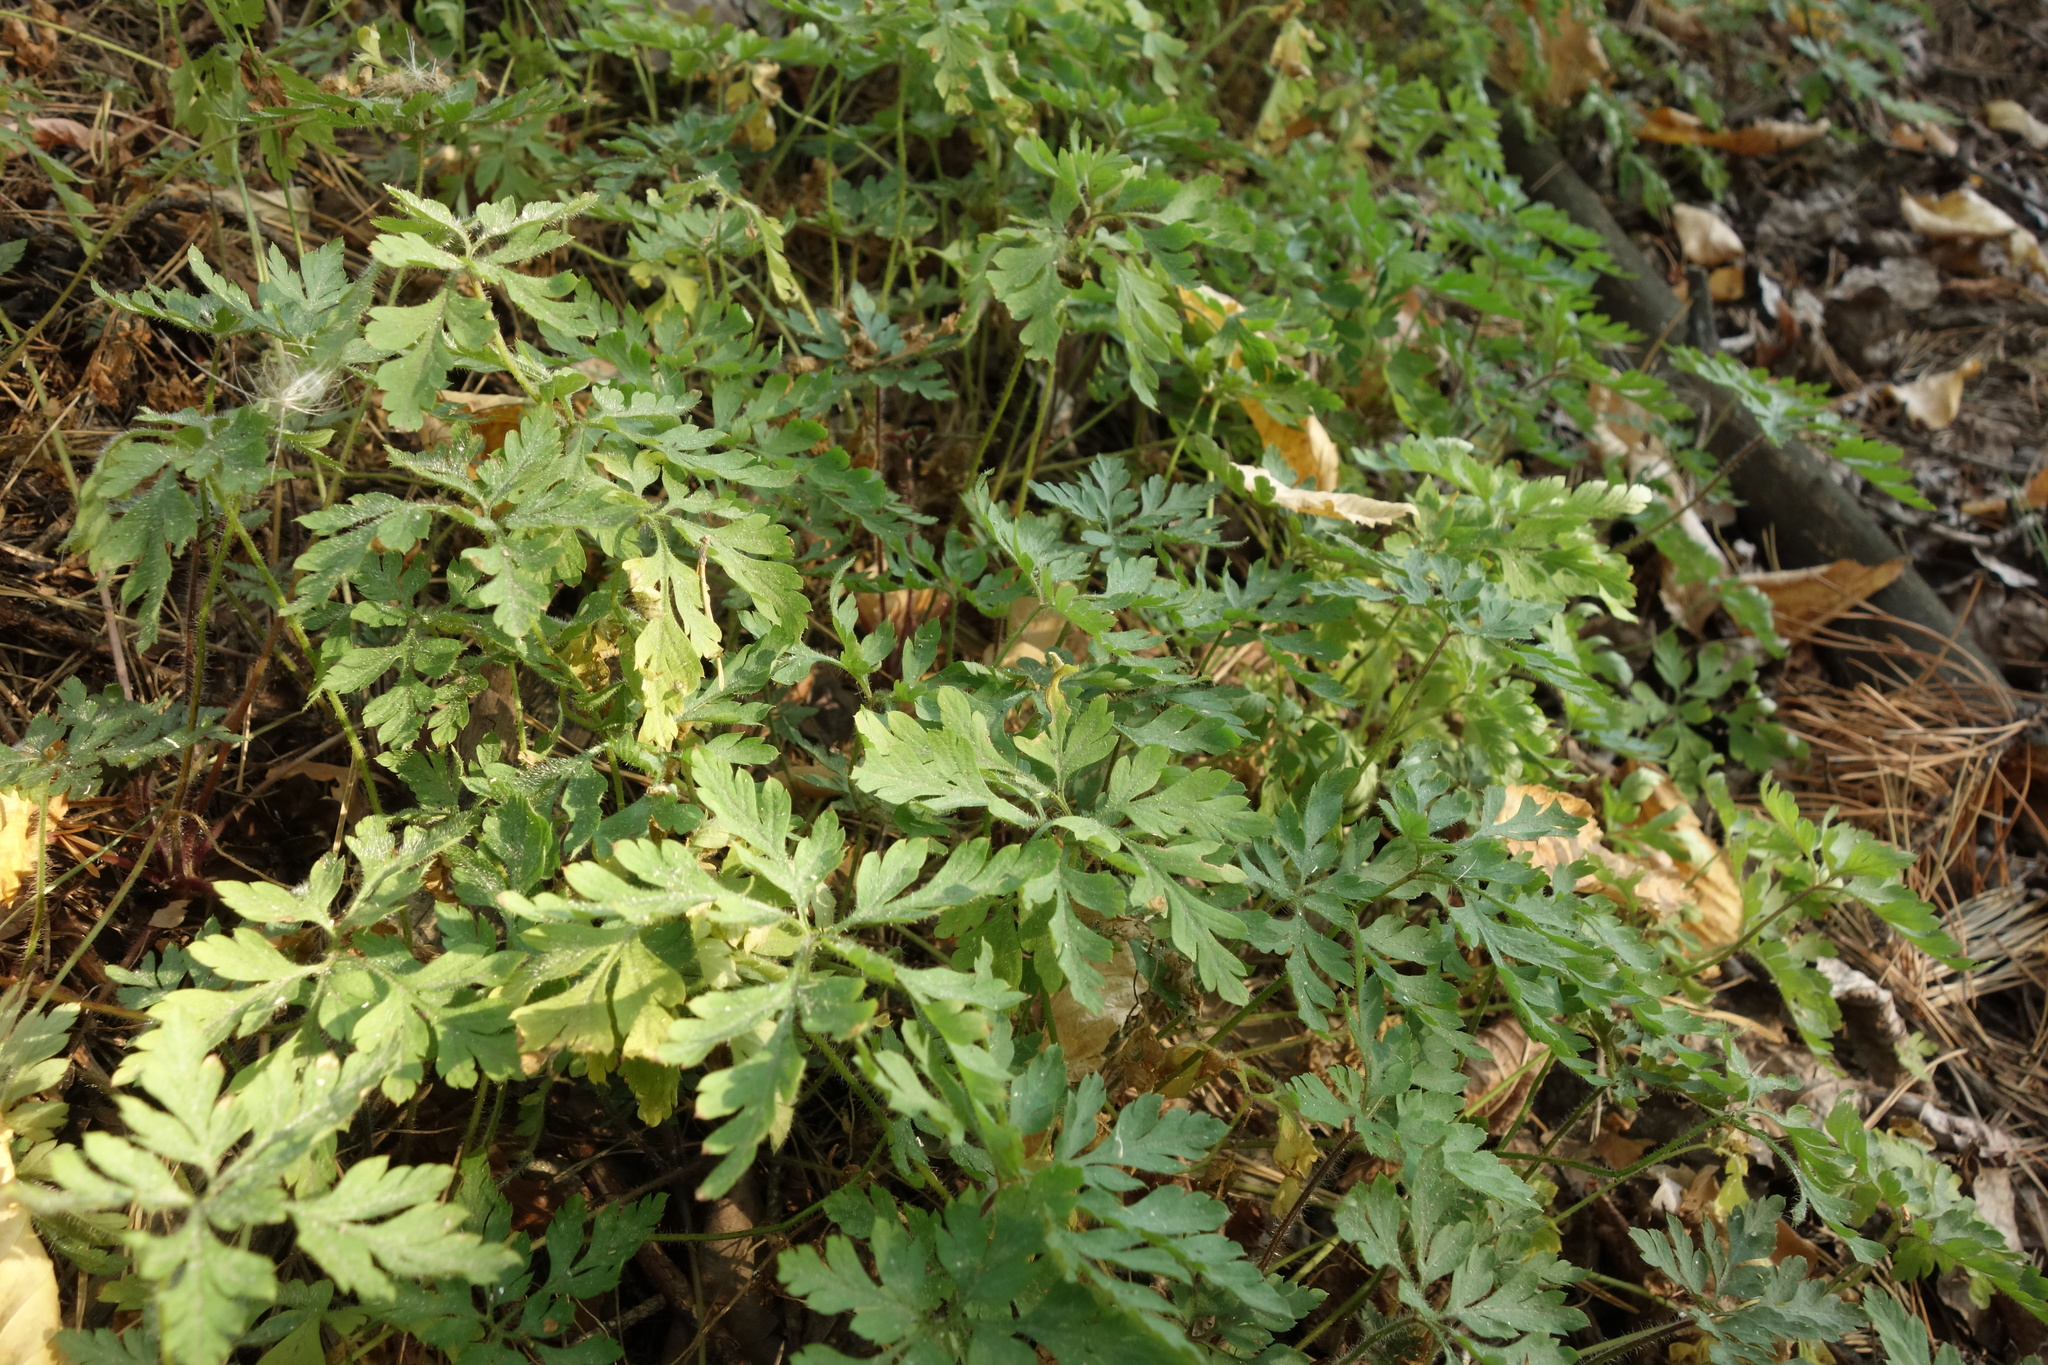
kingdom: Plantae
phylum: Tracheophyta
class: Magnoliopsida
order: Geraniales
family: Geraniaceae
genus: Geranium
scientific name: Geranium robertianum
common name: Herb-robert
